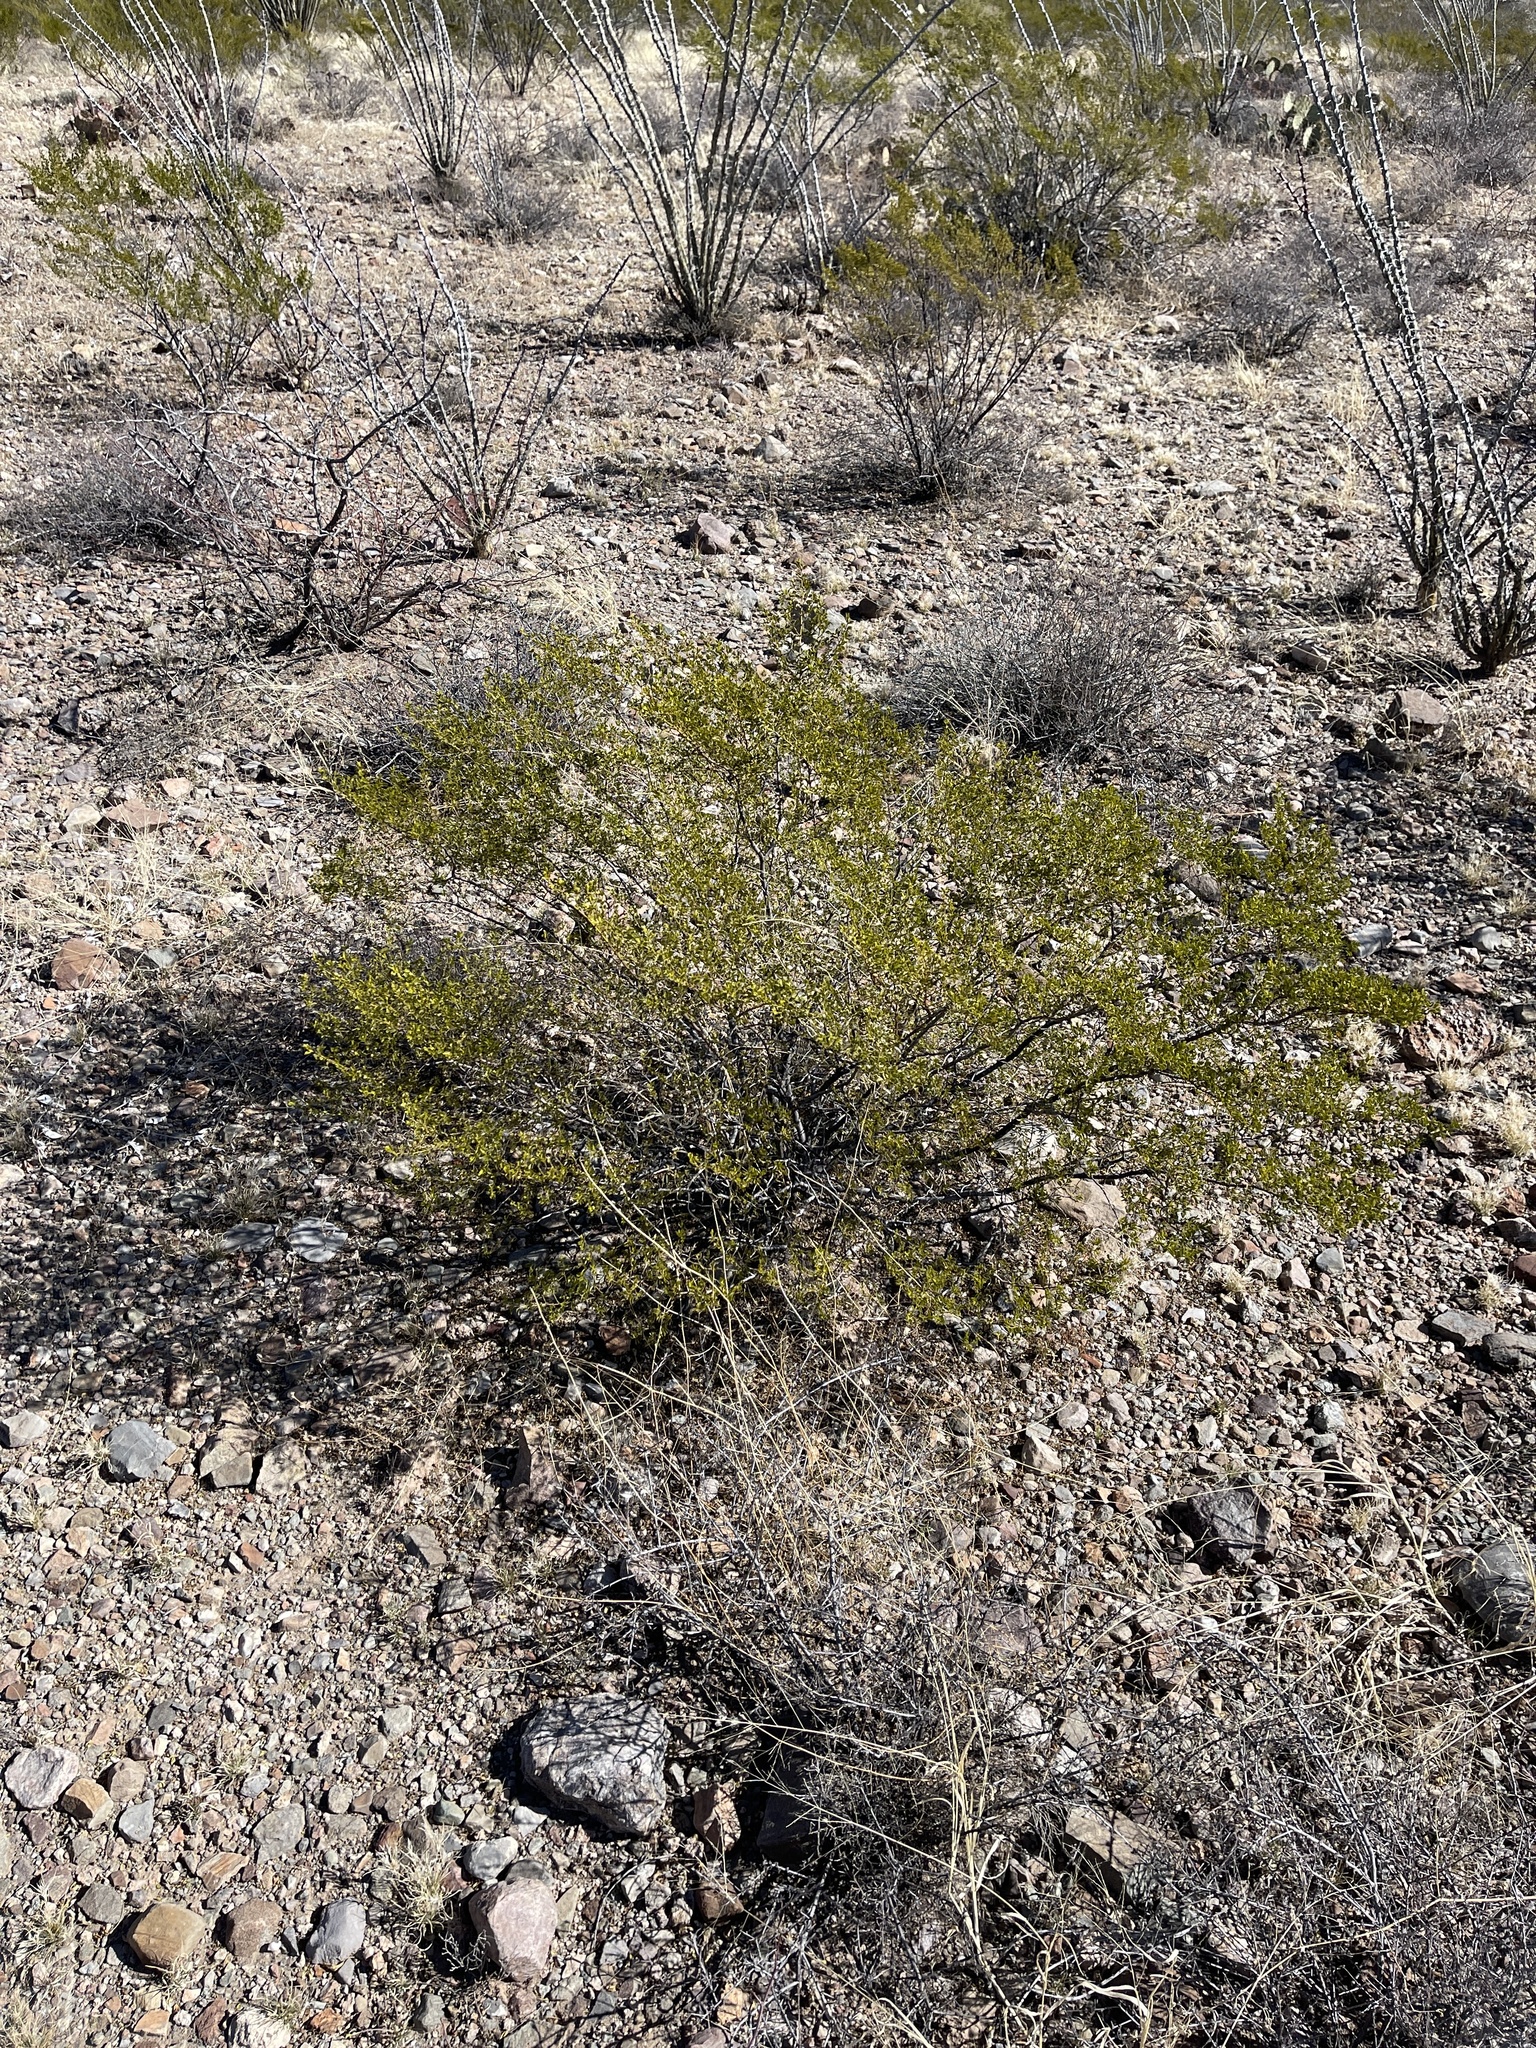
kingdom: Plantae
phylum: Tracheophyta
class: Magnoliopsida
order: Zygophyllales
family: Zygophyllaceae
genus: Larrea
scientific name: Larrea tridentata
